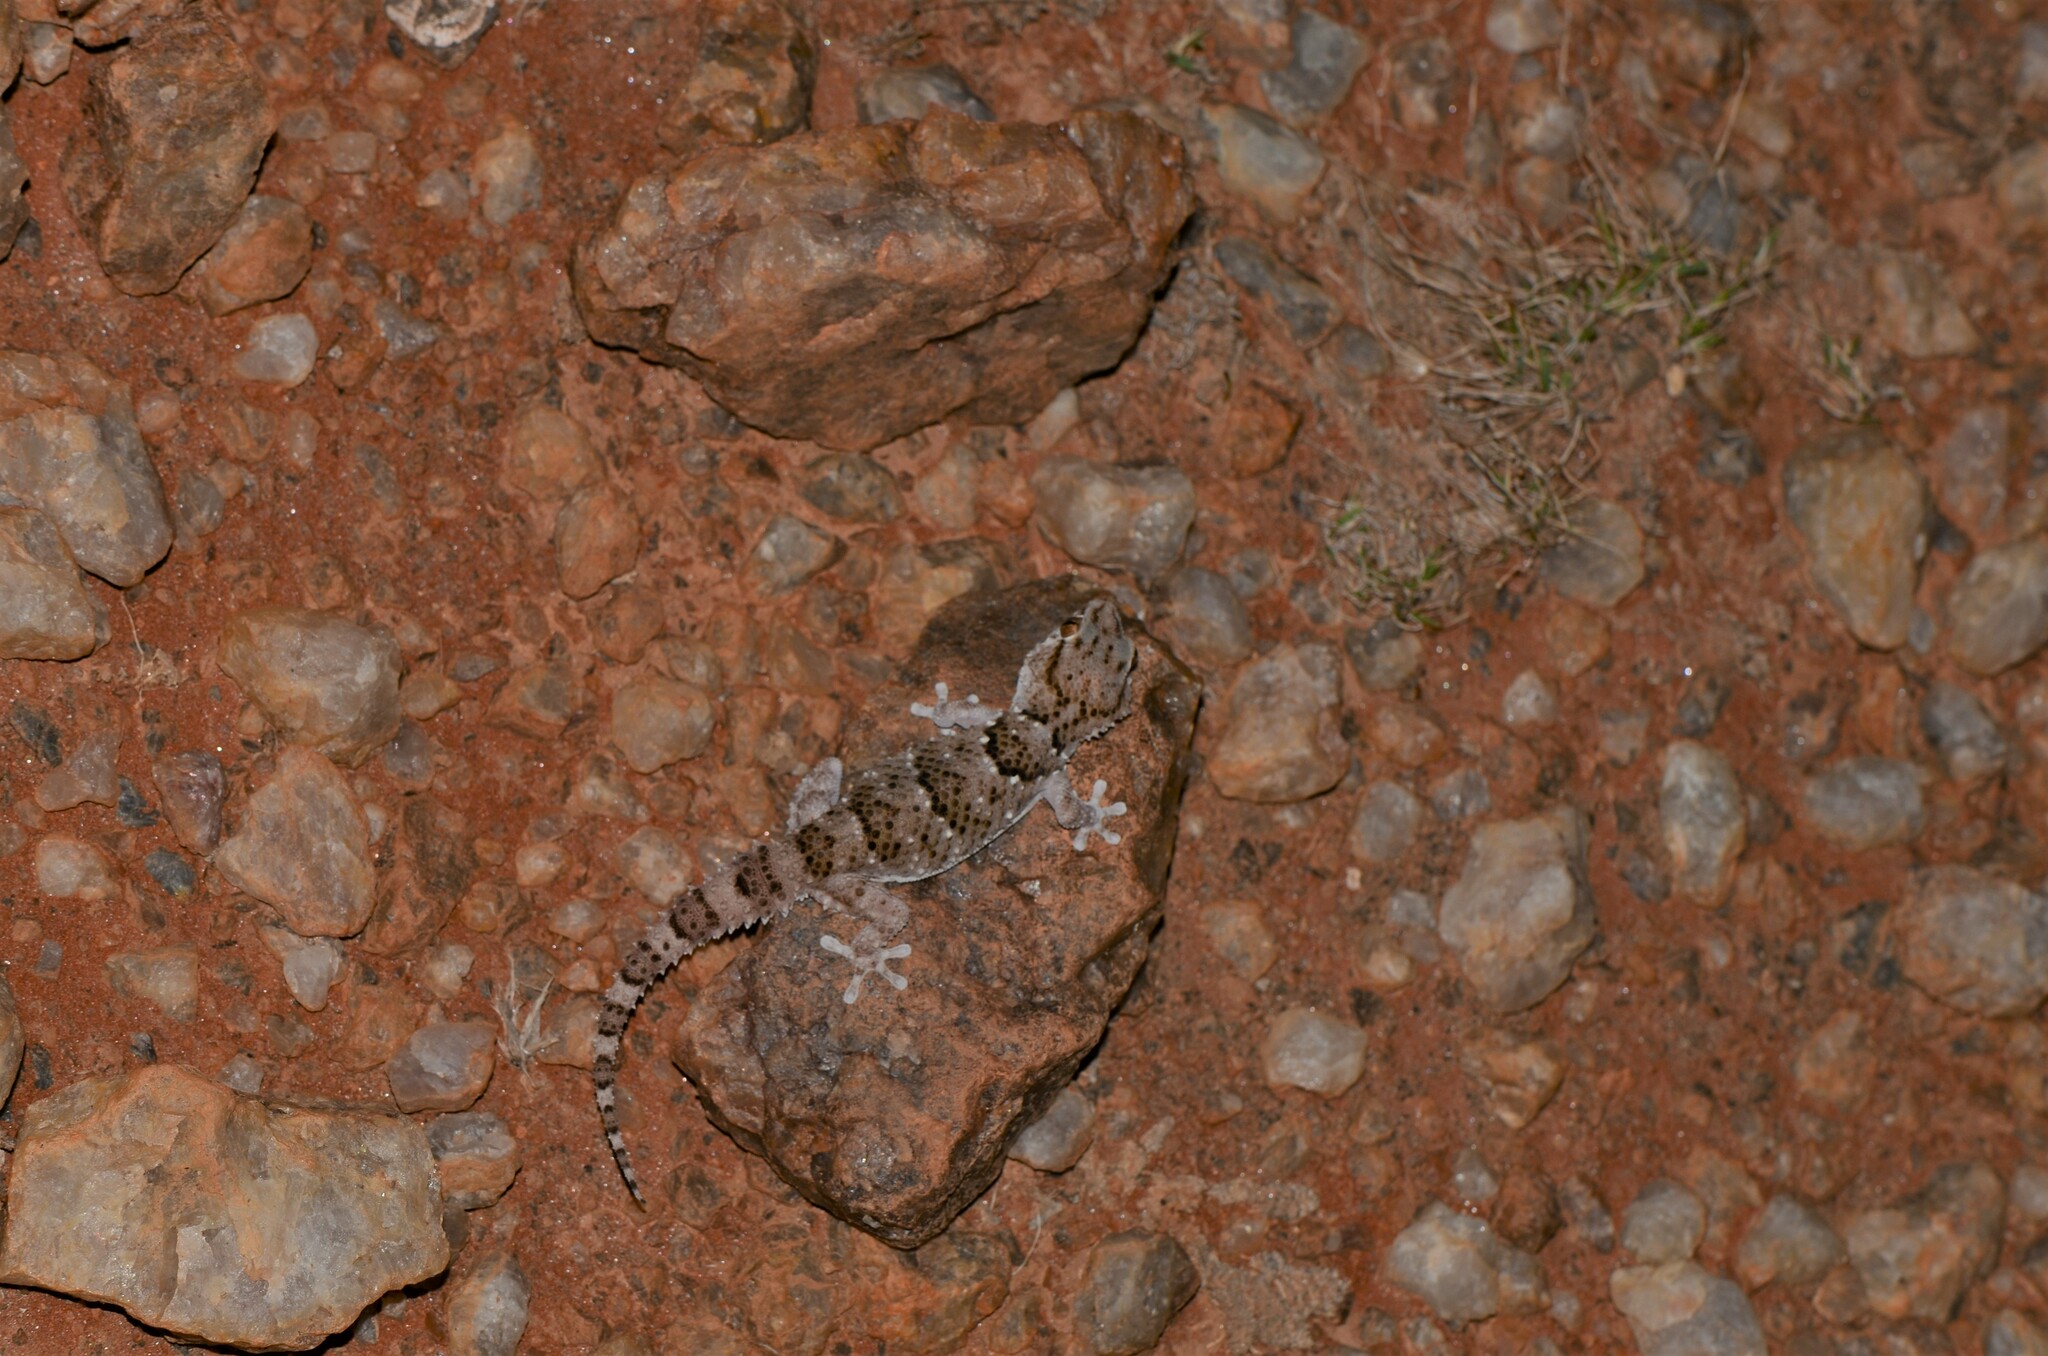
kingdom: Animalia
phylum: Chordata
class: Squamata
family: Gekkonidae
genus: Chondrodactylus
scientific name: Chondrodactylus laevigatus
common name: Fischer's thick-toed gecko
